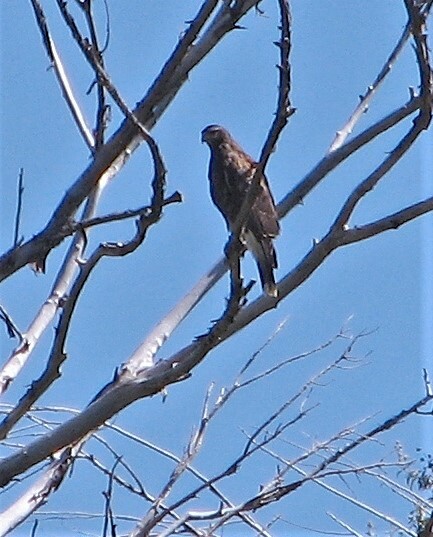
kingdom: Animalia
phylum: Chordata
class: Aves
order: Accipitriformes
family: Accipitridae
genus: Parabuteo
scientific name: Parabuteo unicinctus
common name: Harris's hawk
